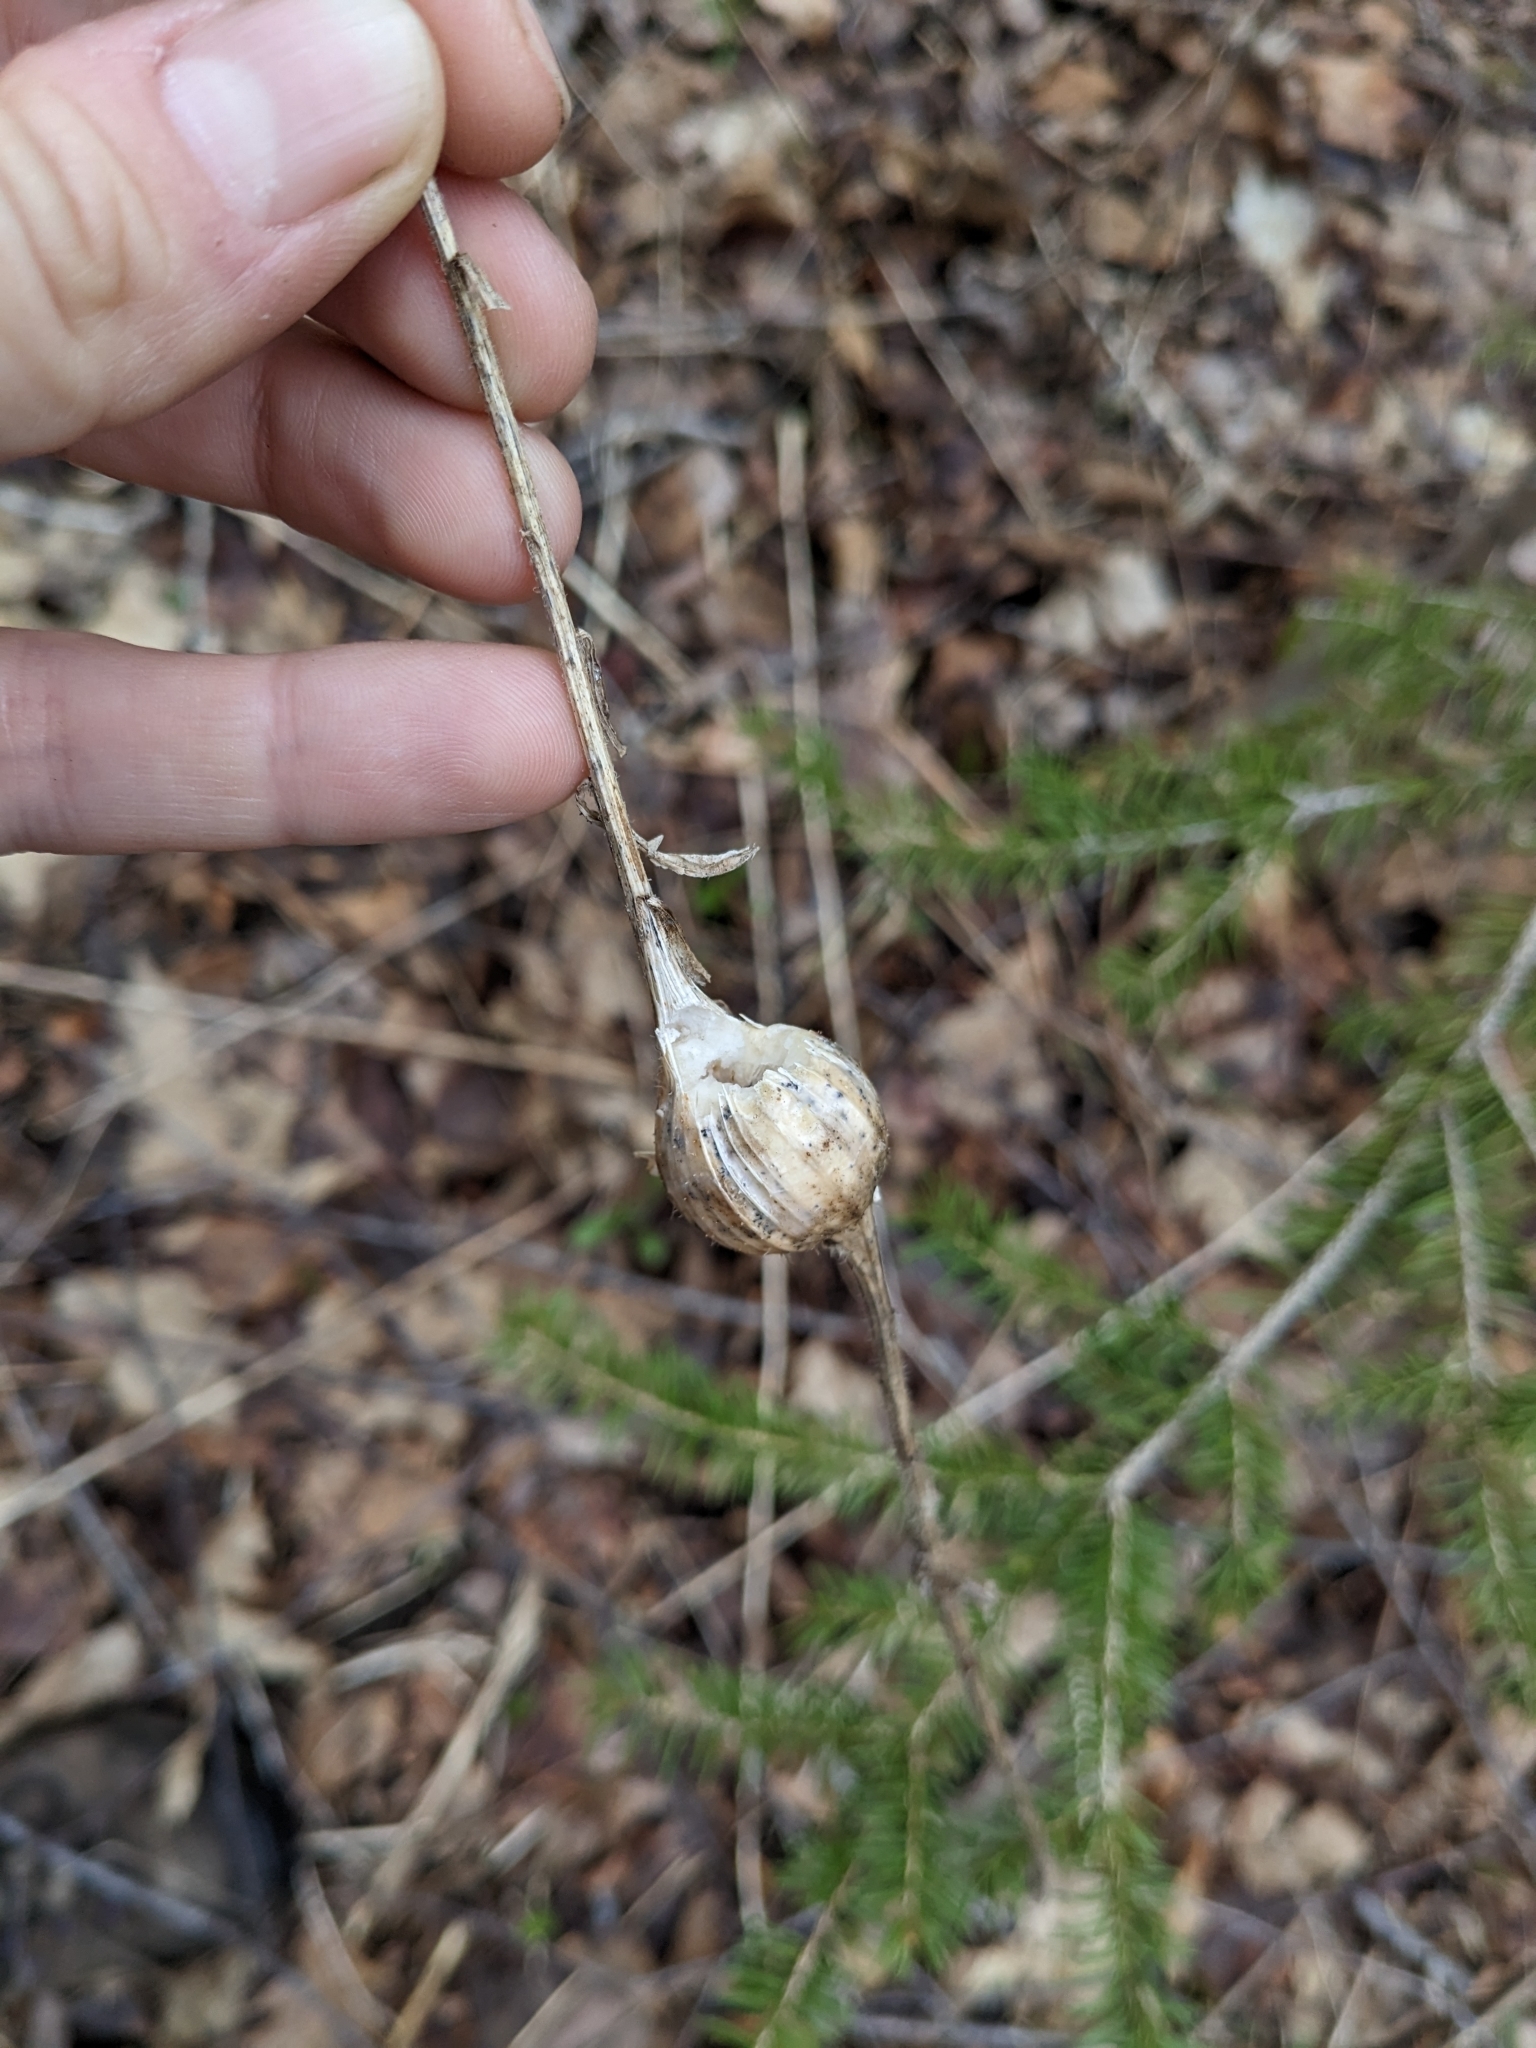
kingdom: Animalia
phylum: Arthropoda
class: Insecta
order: Diptera
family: Tephritidae
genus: Eurosta
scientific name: Eurosta solidaginis
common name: Goldenrod gall fly
